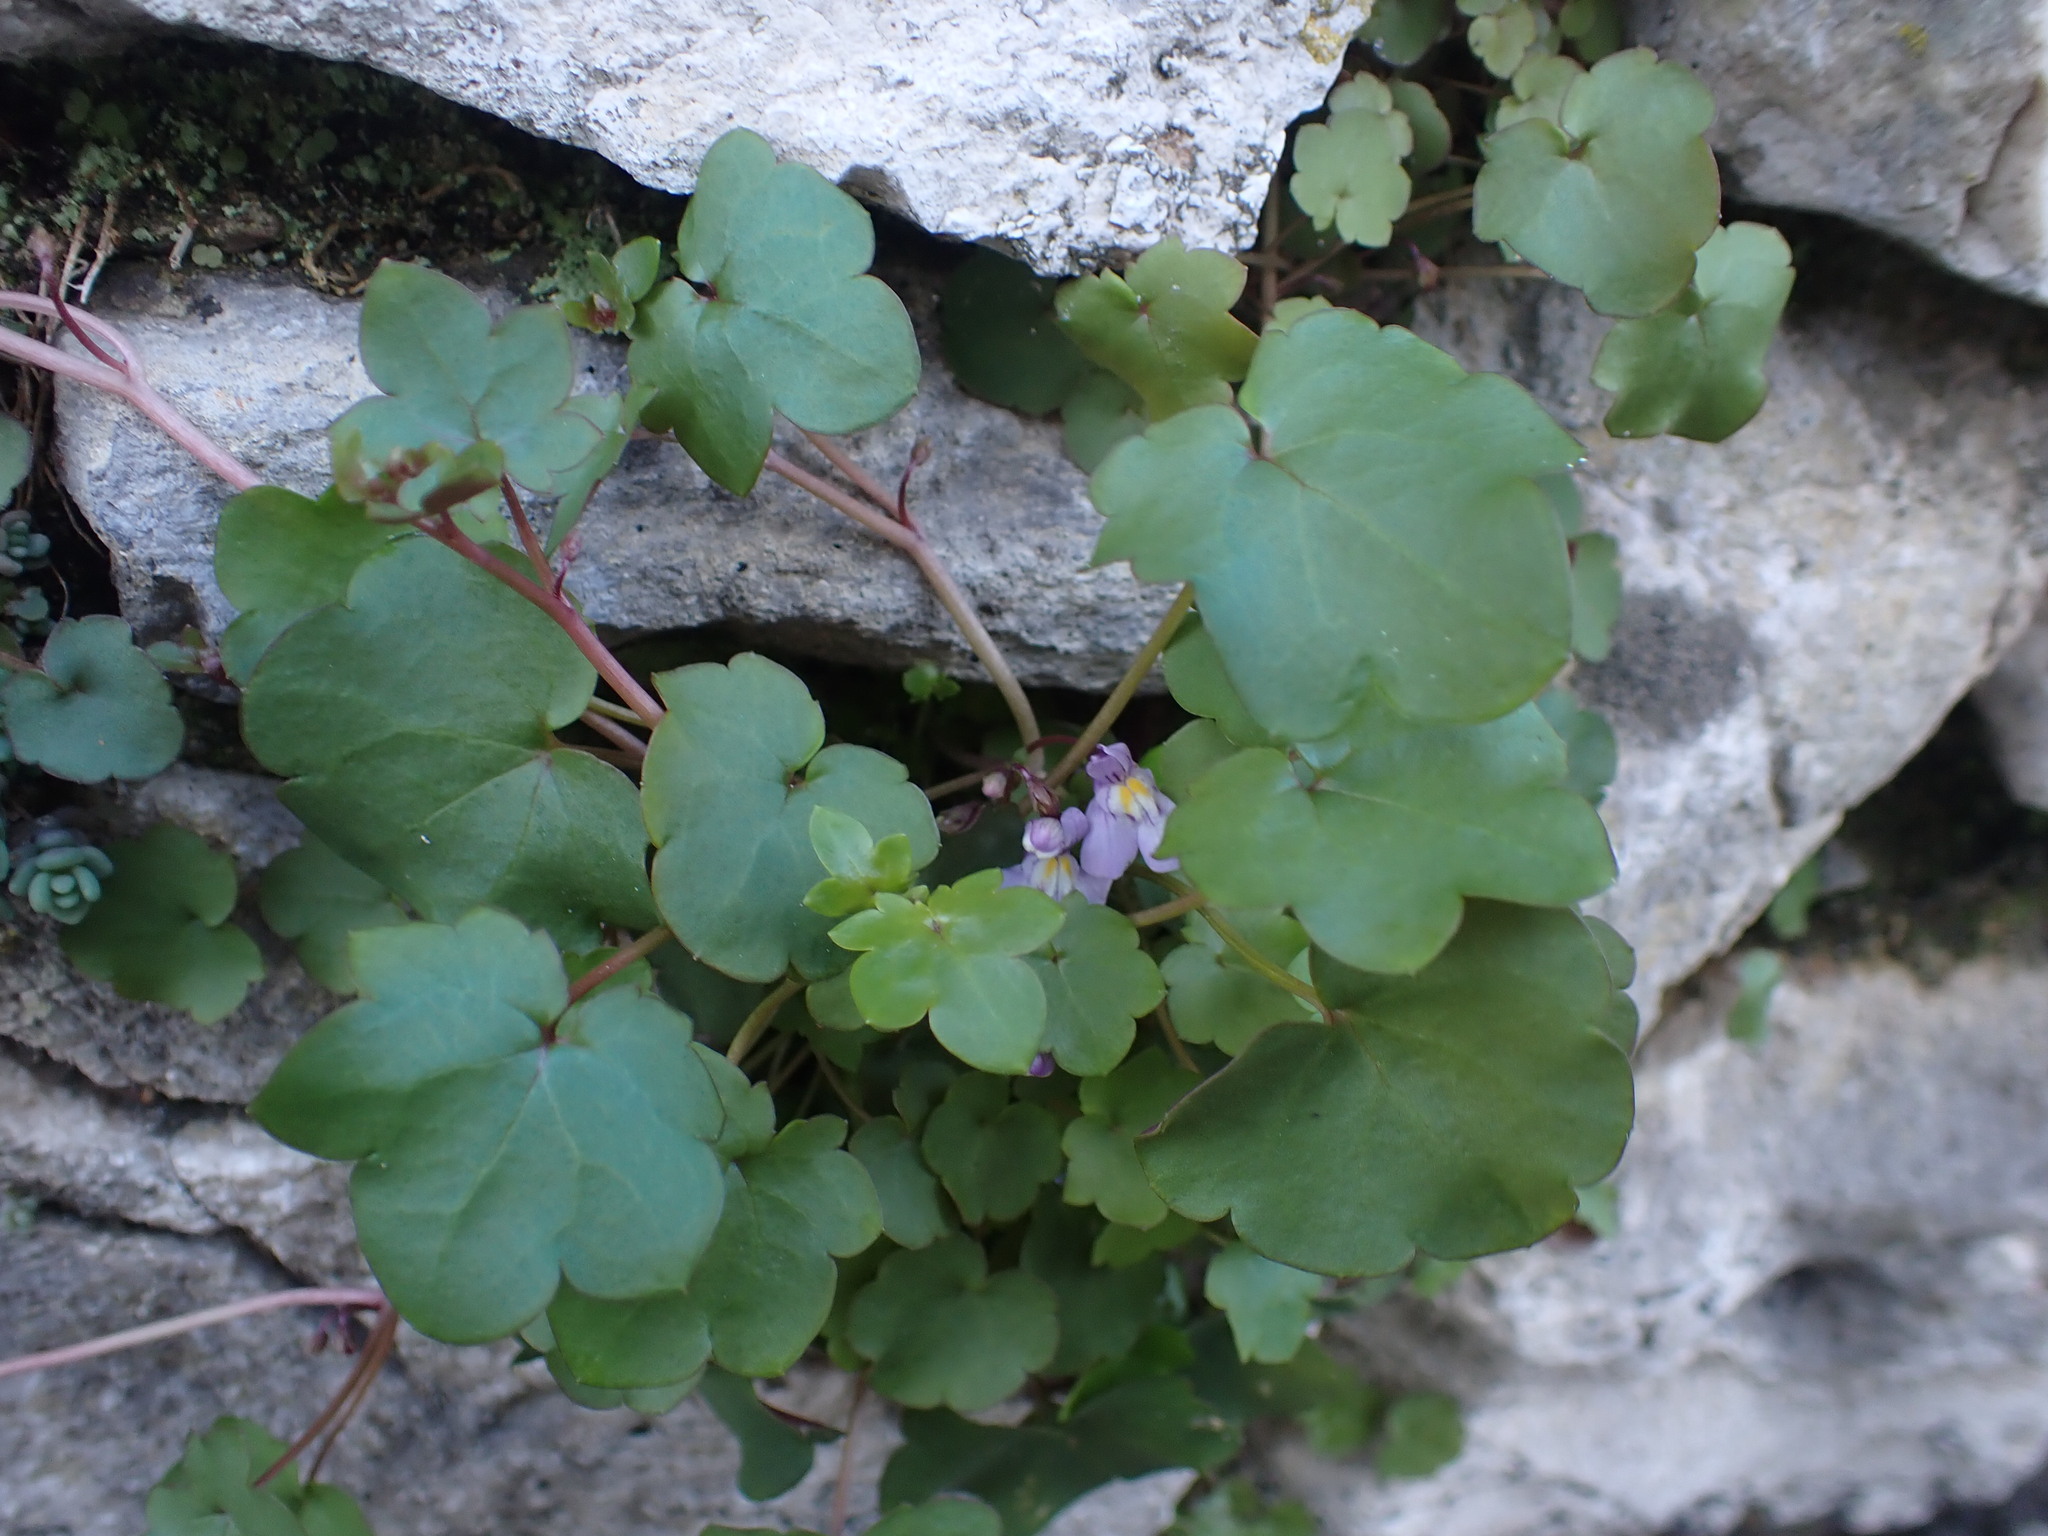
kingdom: Plantae
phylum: Tracheophyta
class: Magnoliopsida
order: Lamiales
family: Plantaginaceae
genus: Cymbalaria
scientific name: Cymbalaria muralis
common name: Ivy-leaved toadflax
